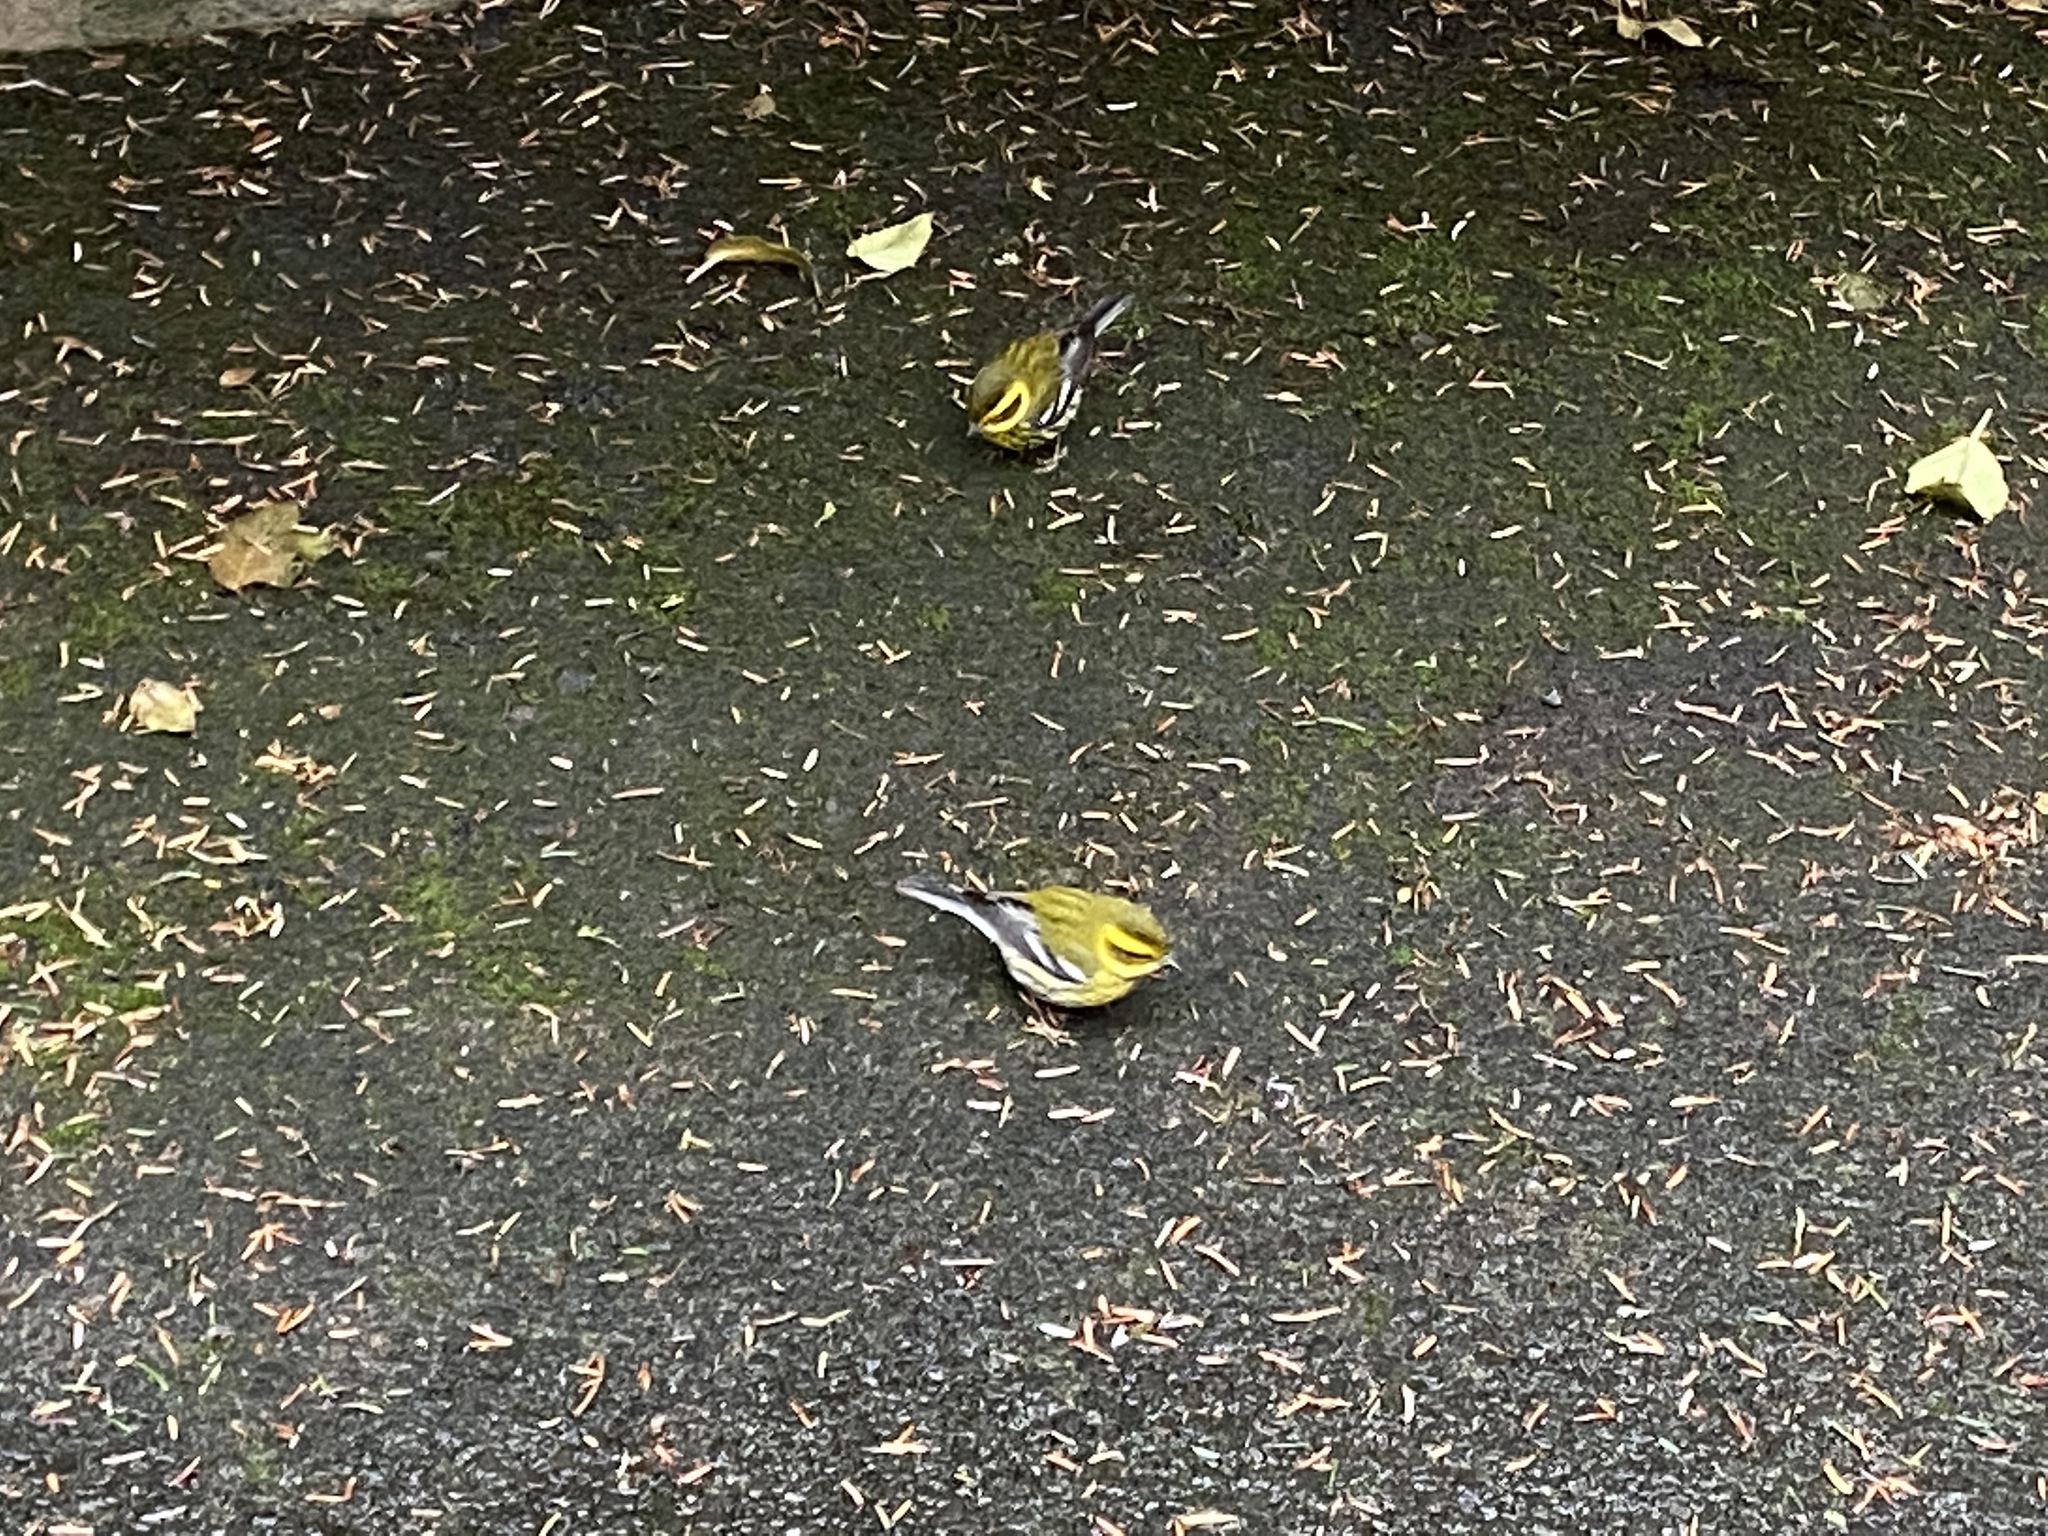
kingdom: Animalia
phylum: Chordata
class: Aves
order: Passeriformes
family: Parulidae
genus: Setophaga
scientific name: Setophaga townsendi
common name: Townsend's warbler
